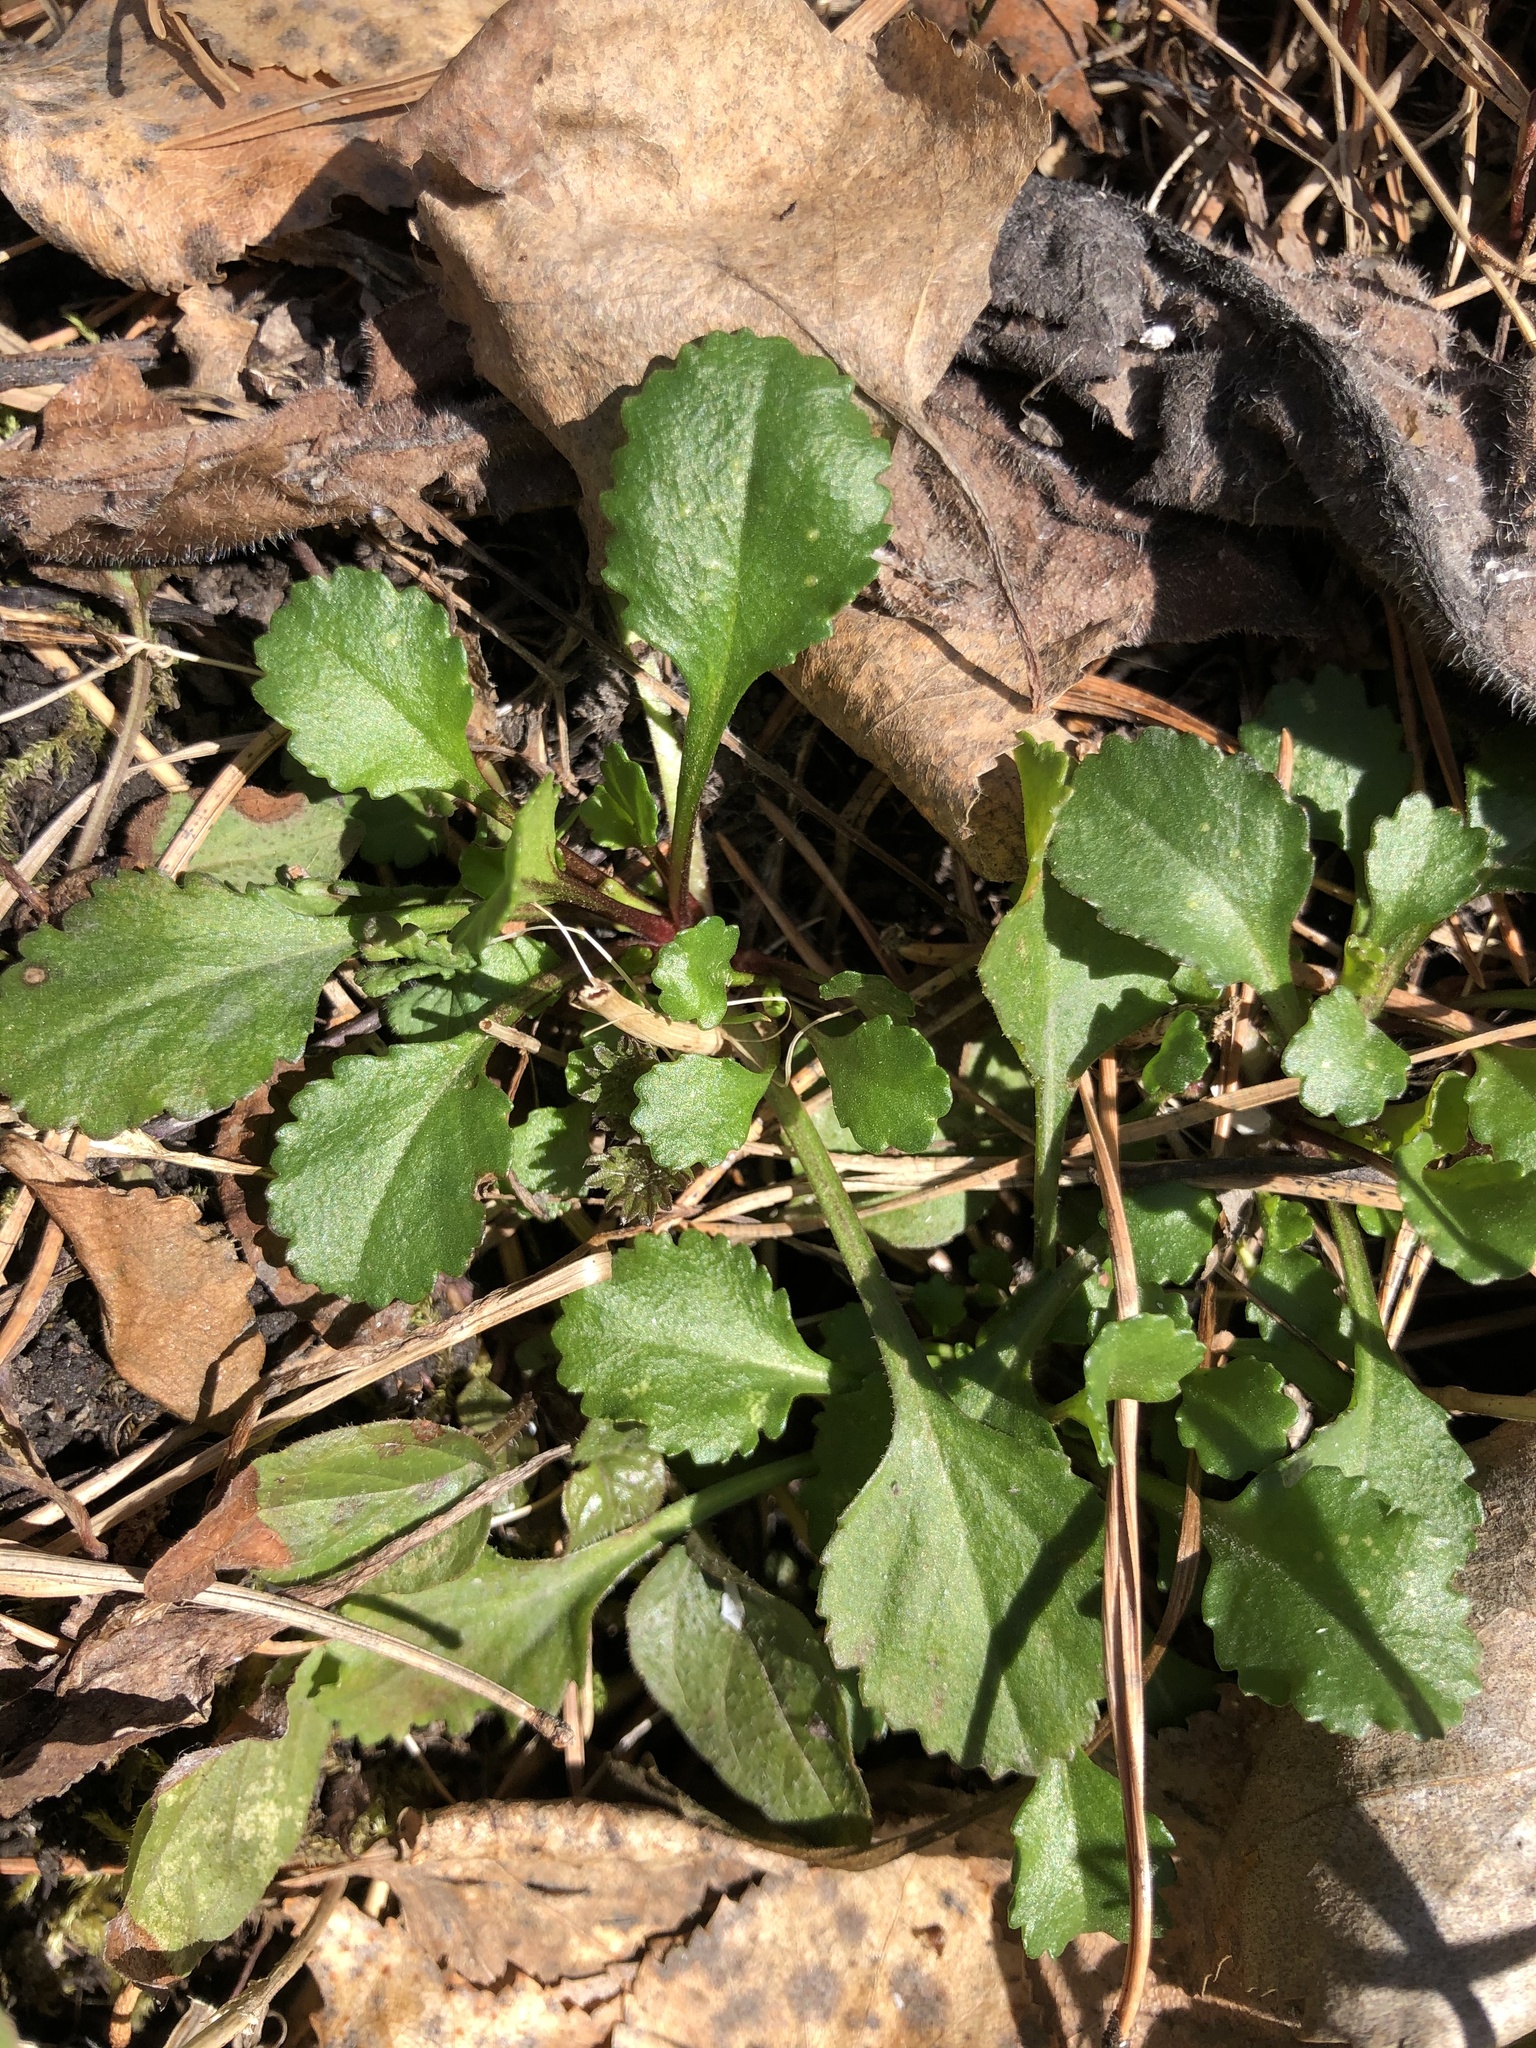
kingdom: Plantae
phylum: Tracheophyta
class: Magnoliopsida
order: Asterales
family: Asteraceae
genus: Leucanthemum
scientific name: Leucanthemum ircutianum
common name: Daisy
